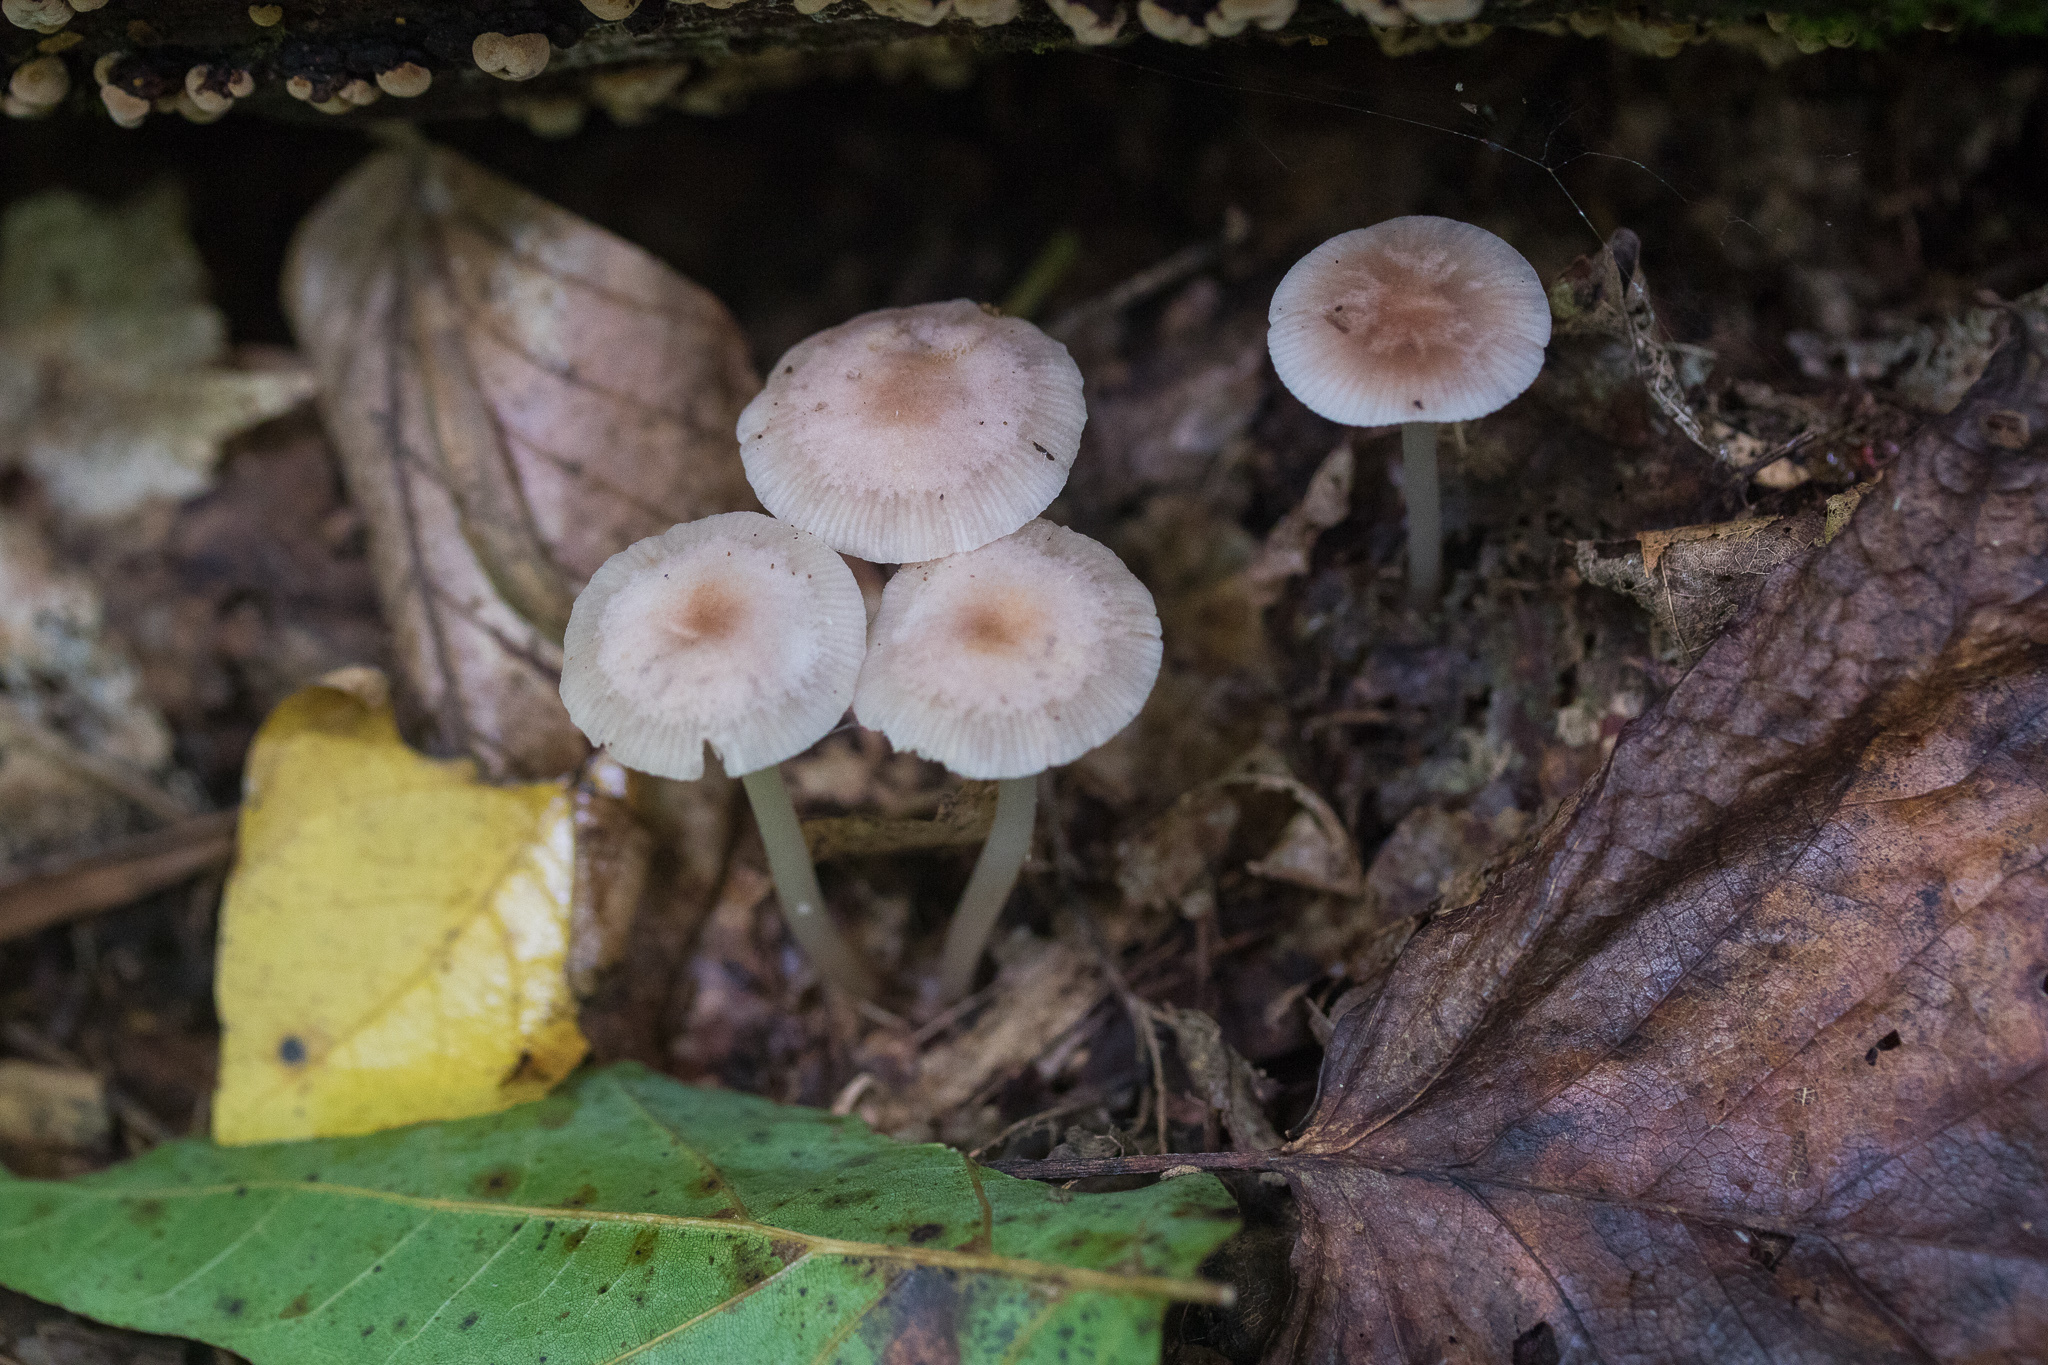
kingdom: Fungi
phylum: Basidiomycota
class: Agaricomycetes
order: Agaricales
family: Mycenaceae
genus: Mycena
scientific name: Mycena pura
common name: Lilac bonnet
